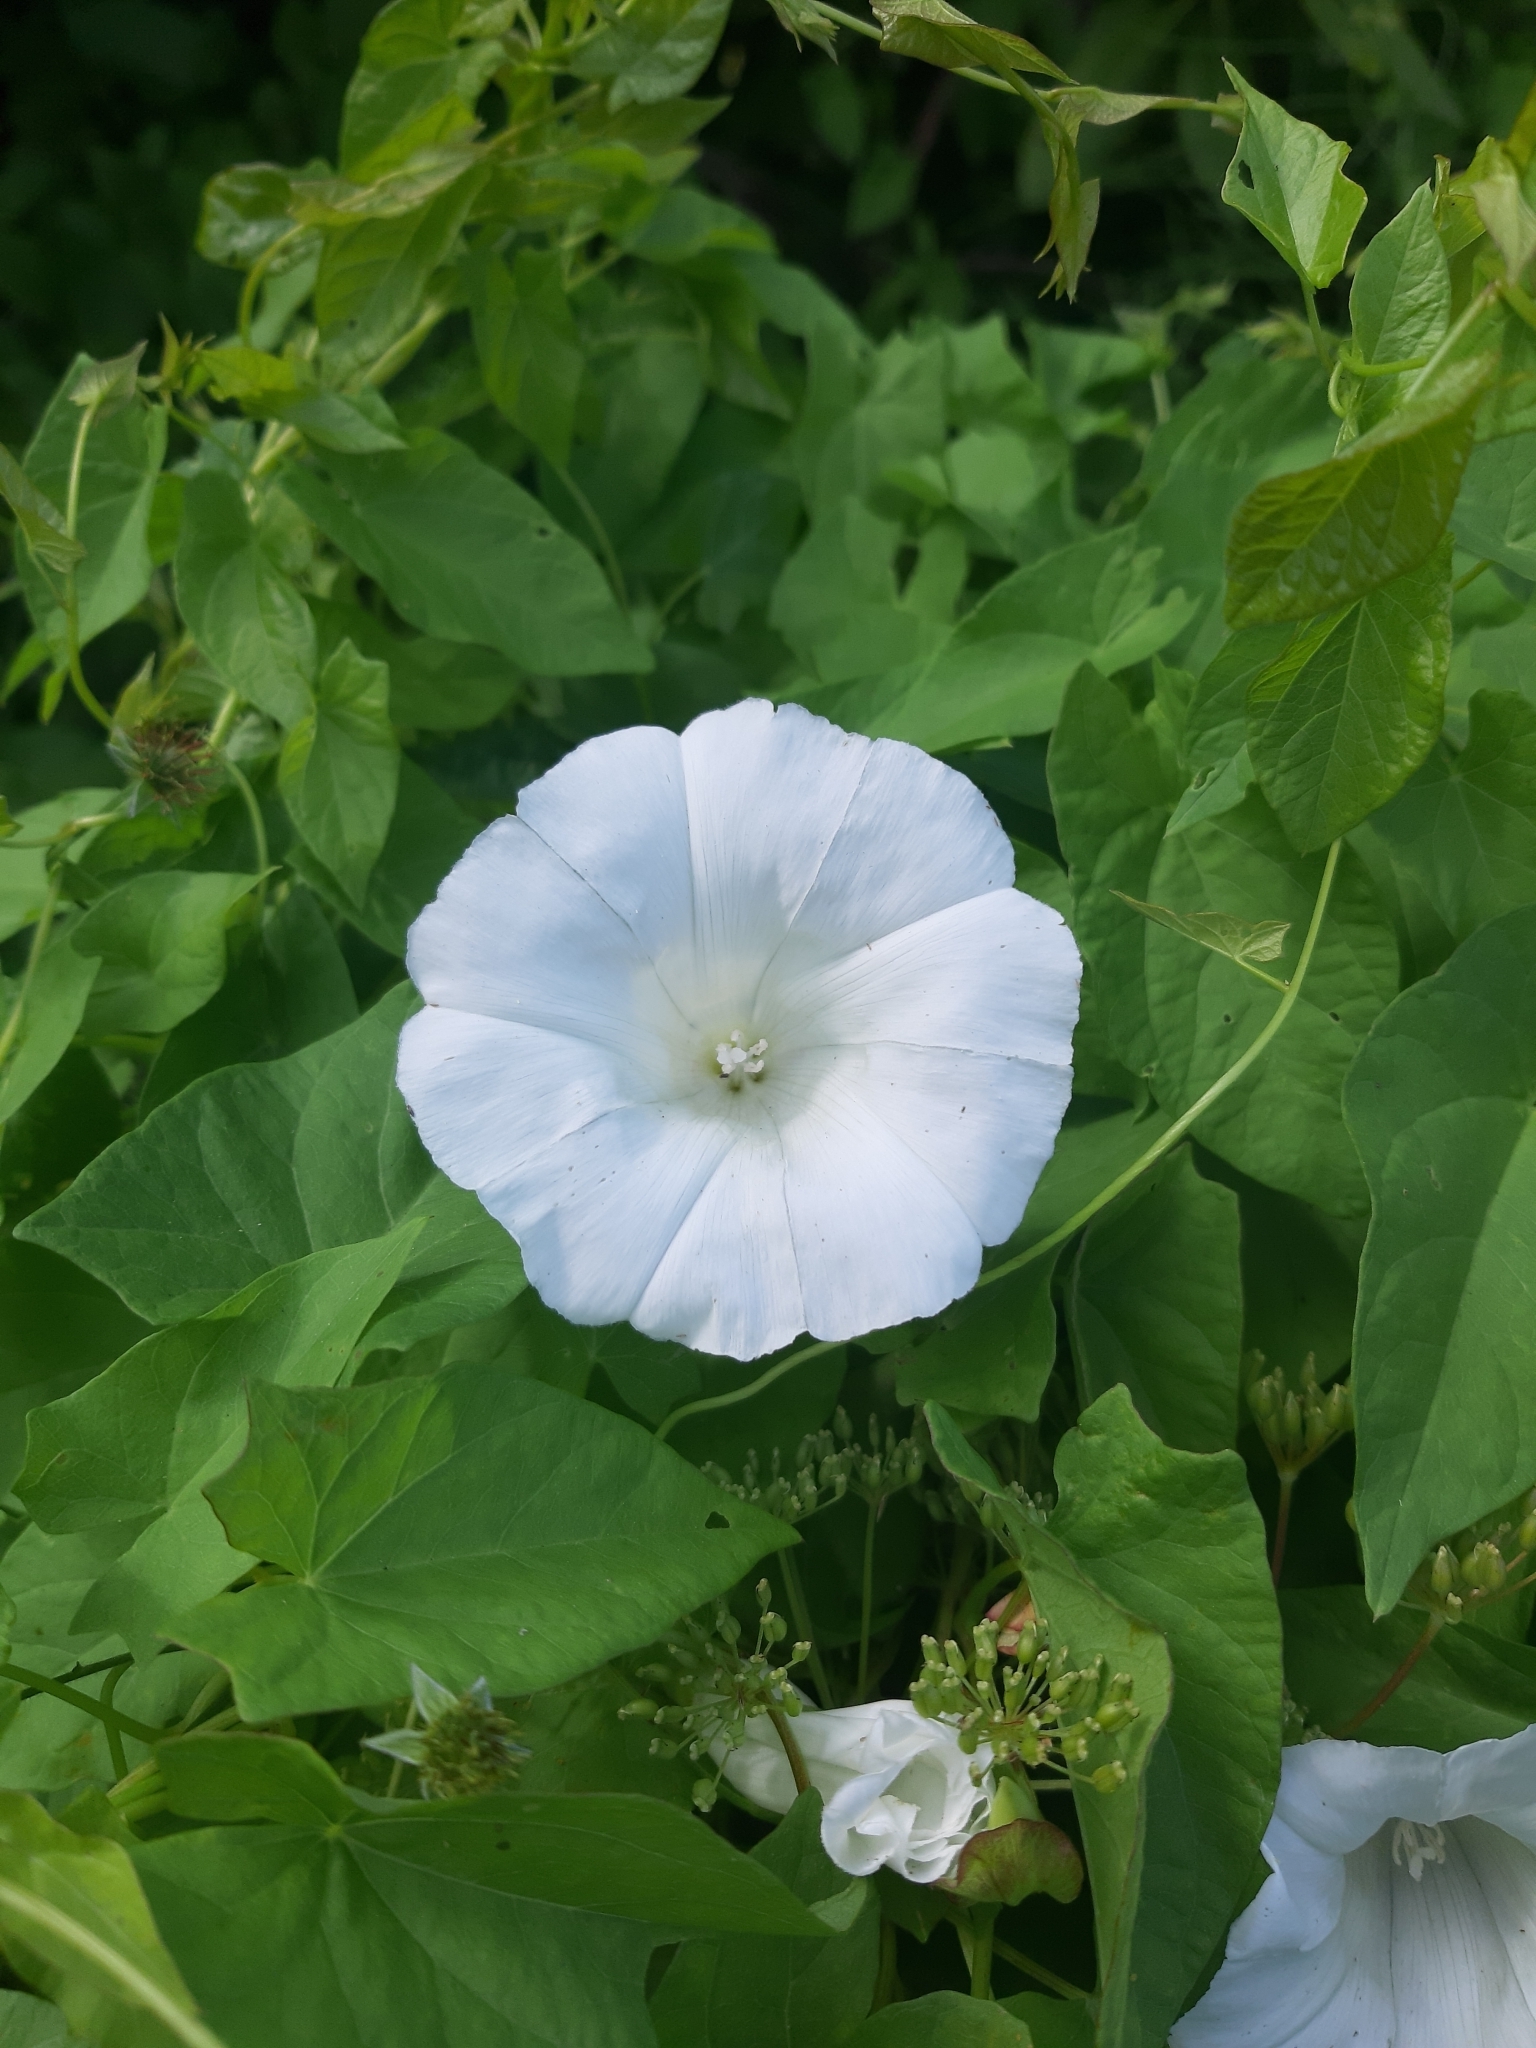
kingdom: Plantae
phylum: Tracheophyta
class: Magnoliopsida
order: Solanales
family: Convolvulaceae
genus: Calystegia
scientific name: Calystegia sepium
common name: Hedge bindweed
